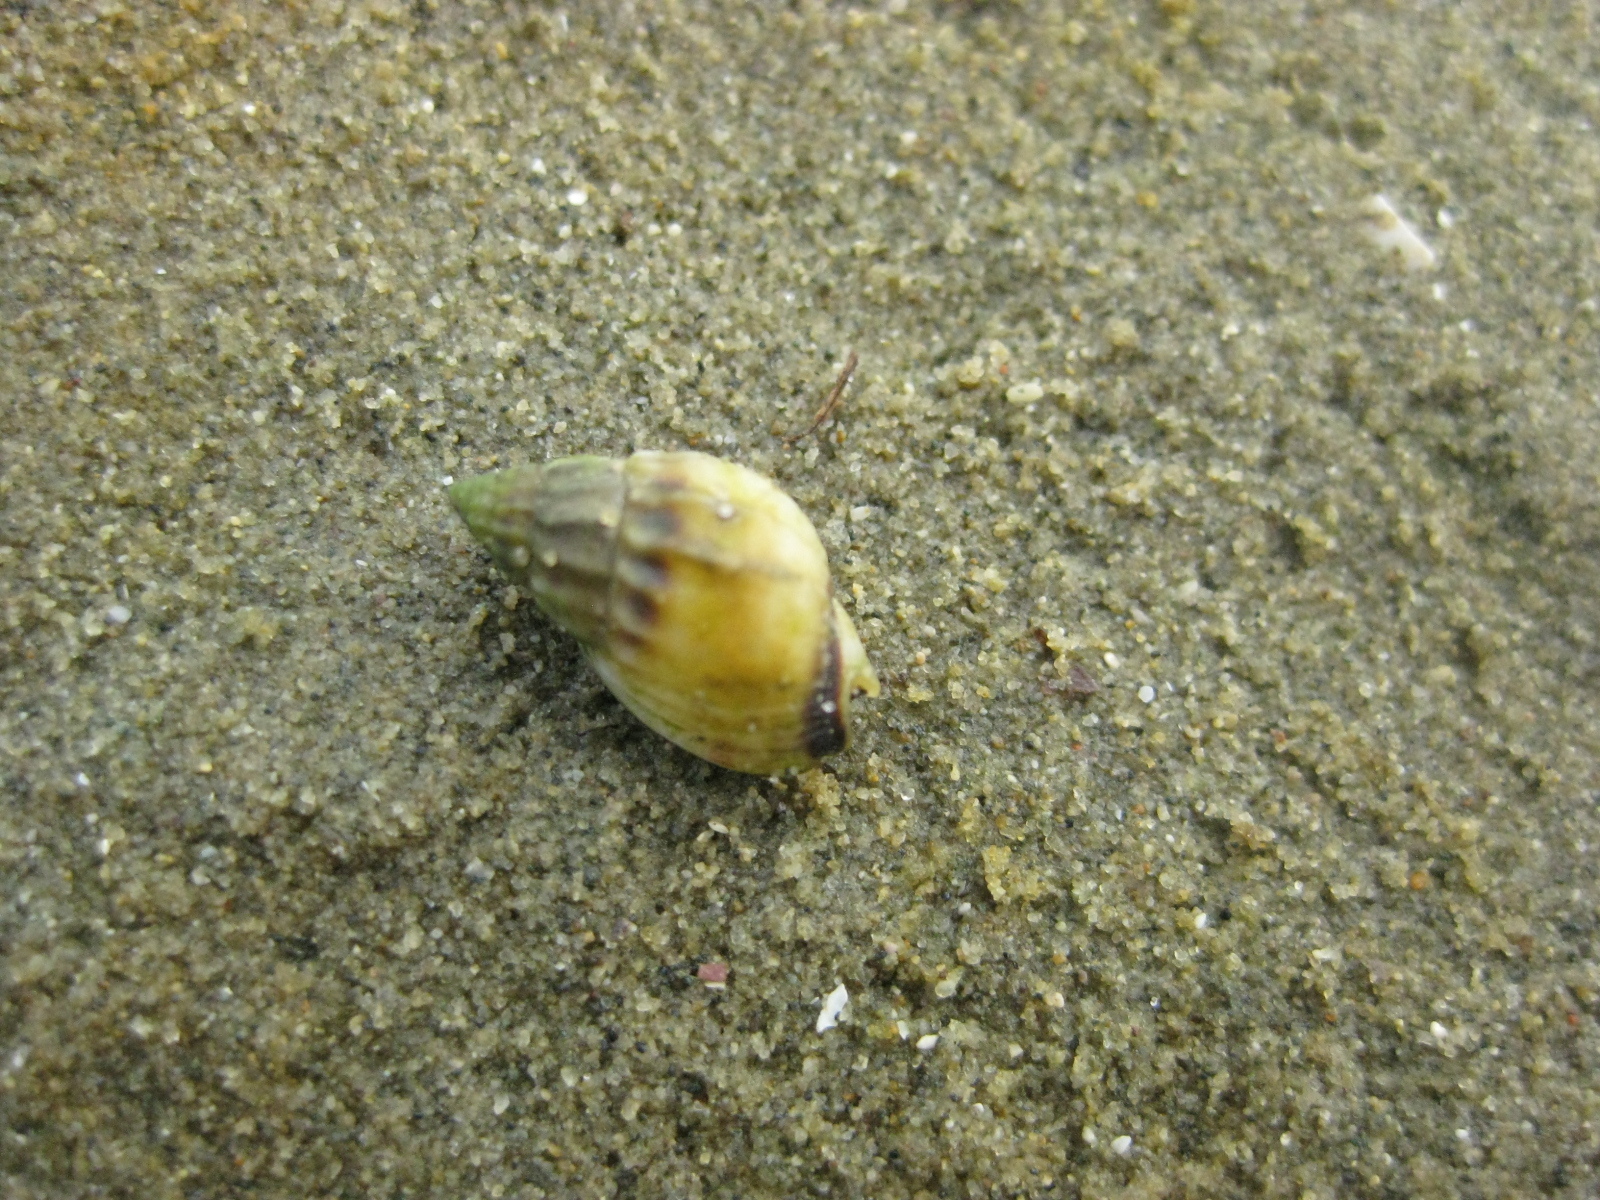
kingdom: Animalia
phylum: Mollusca
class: Gastropoda
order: Neogastropoda
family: Nassariidae
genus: Tritia
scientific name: Tritia burchardi
